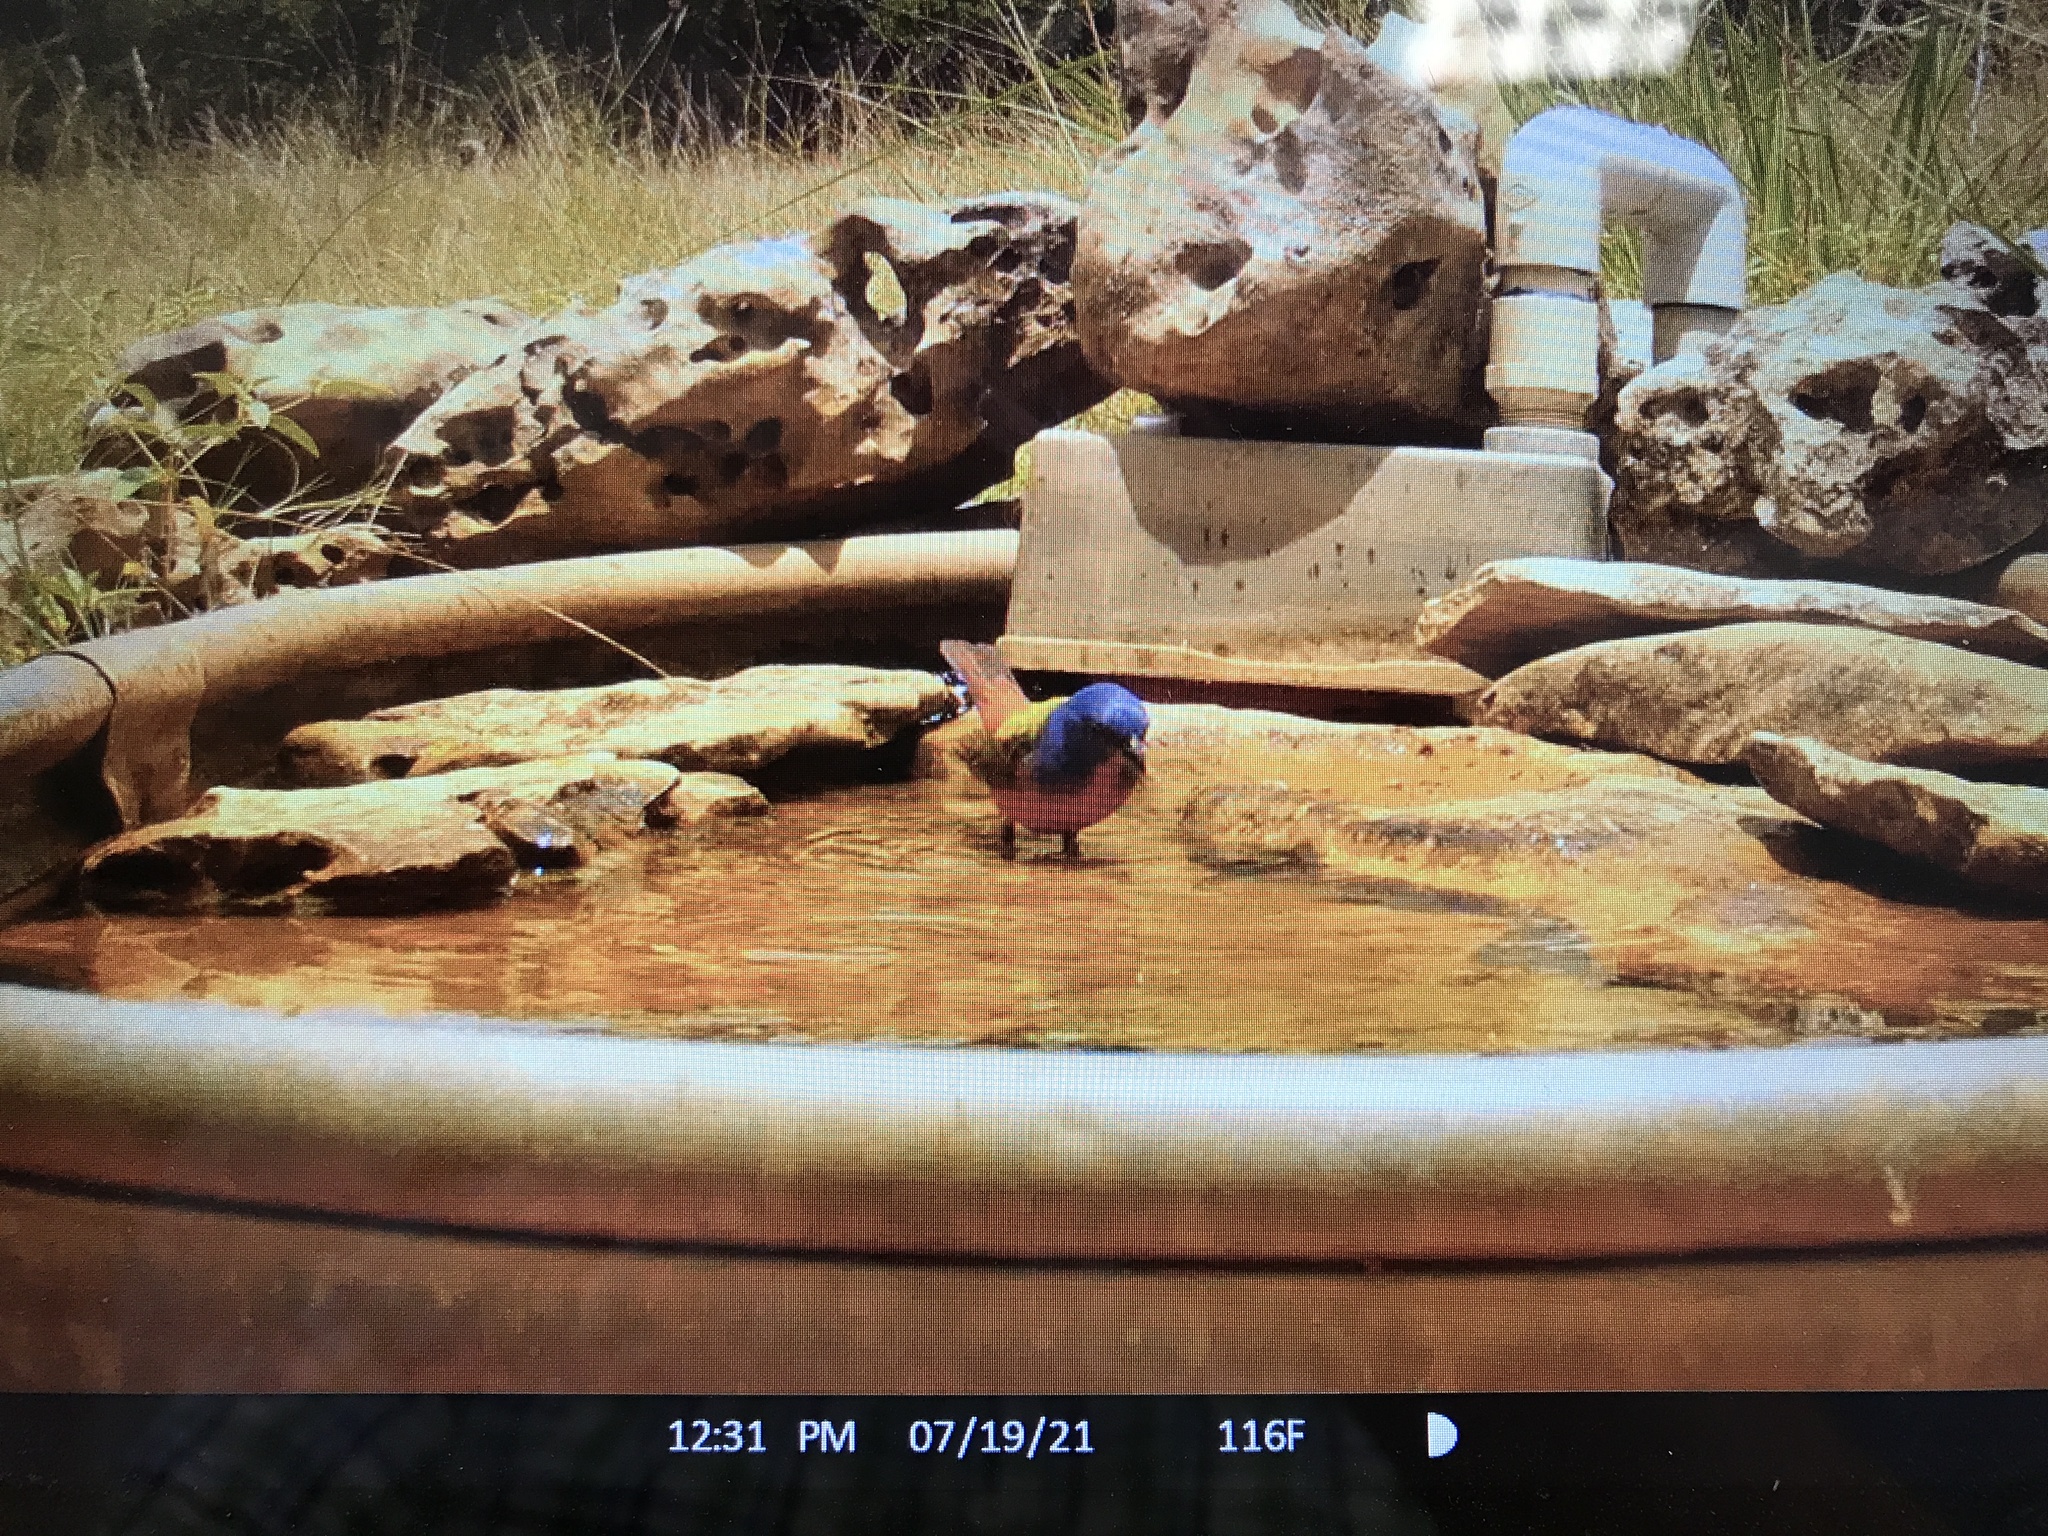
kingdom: Animalia
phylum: Chordata
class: Aves
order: Passeriformes
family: Cardinalidae
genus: Passerina
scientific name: Passerina ciris
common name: Painted bunting
